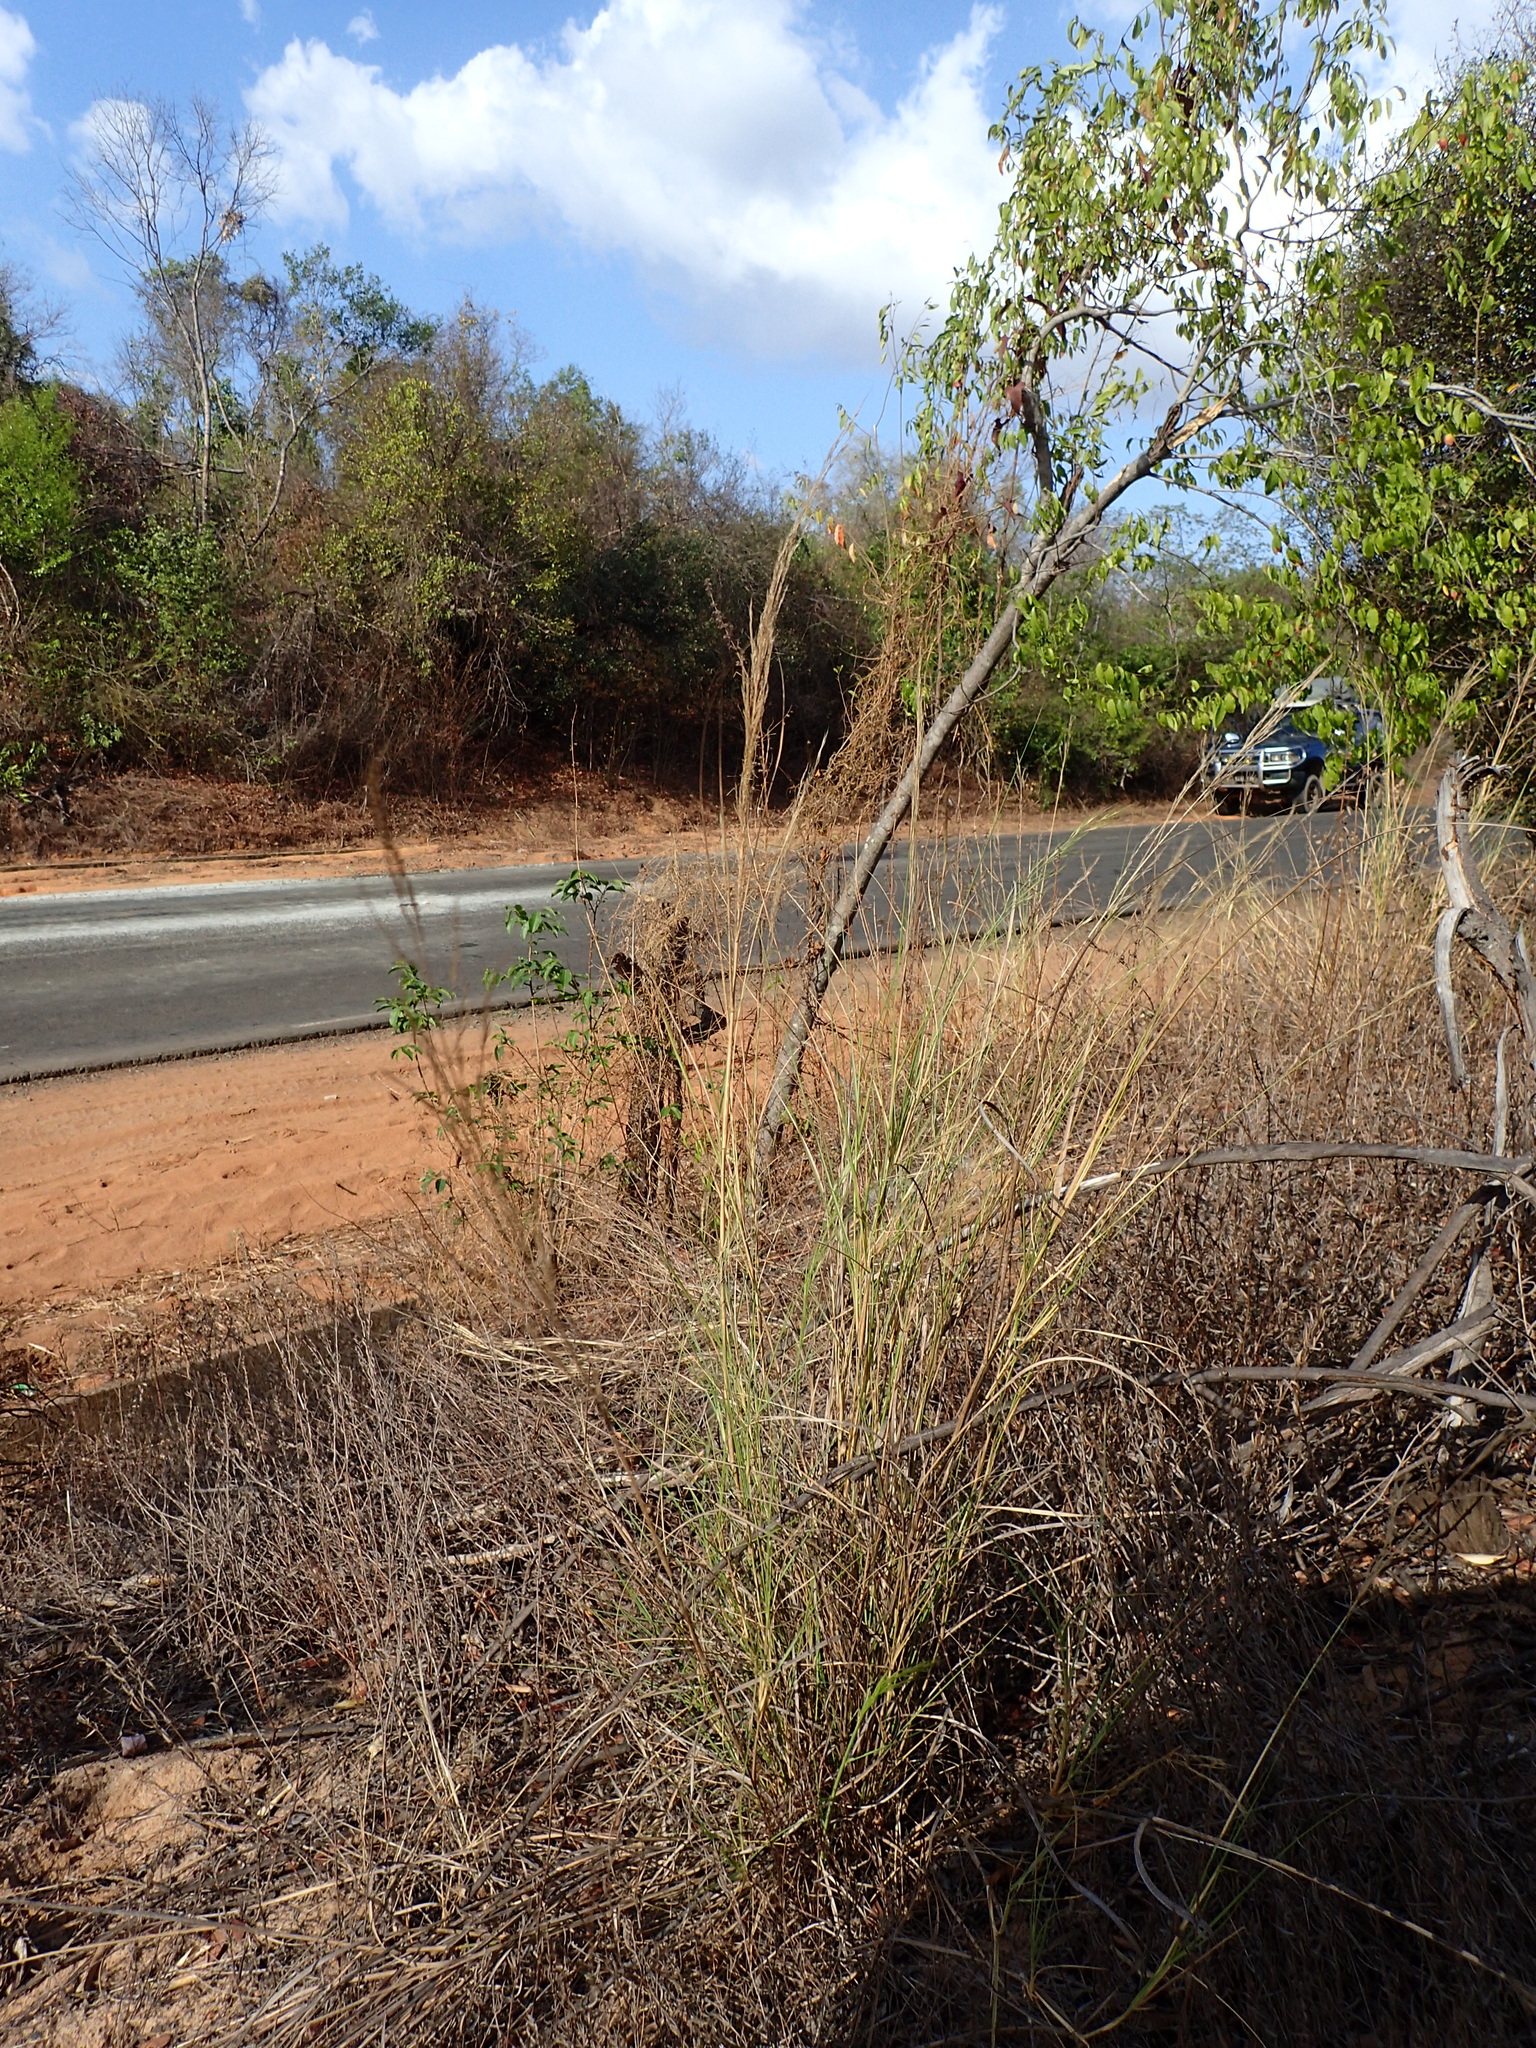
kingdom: Plantae
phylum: Tracheophyta
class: Liliopsida
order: Poales
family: Poaceae
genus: Aristida
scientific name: Aristida similis
